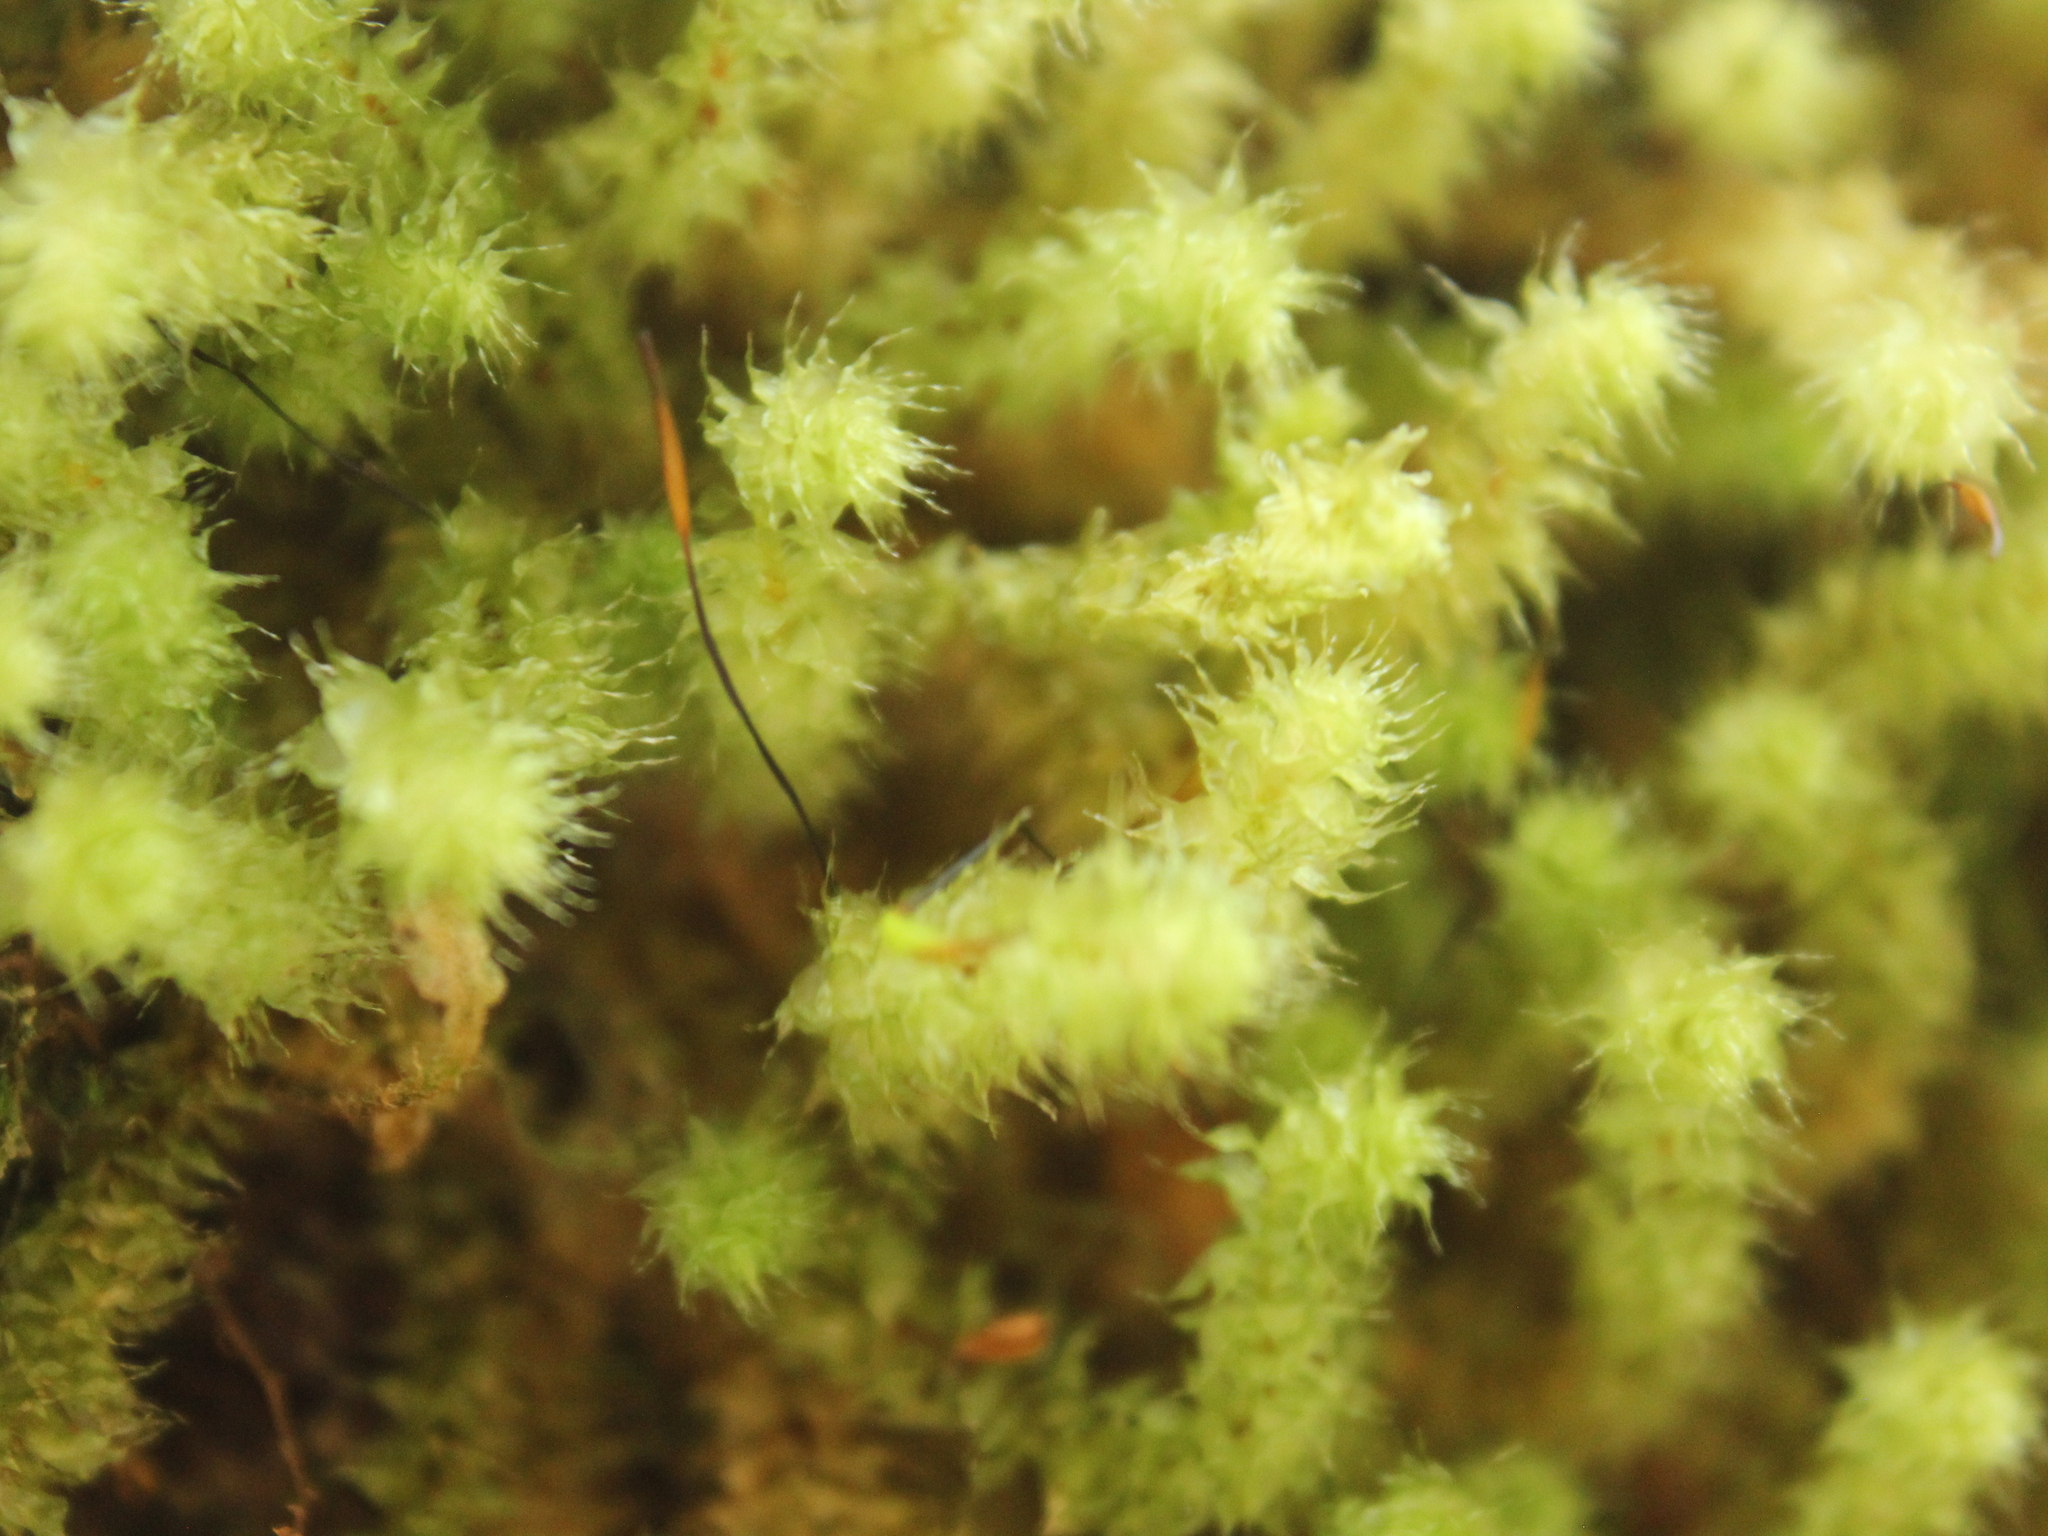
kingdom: Plantae
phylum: Bryophyta
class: Bryopsida
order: Ptychomniales
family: Ptychomniaceae
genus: Ptychomnion
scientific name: Ptychomnion aciculare
